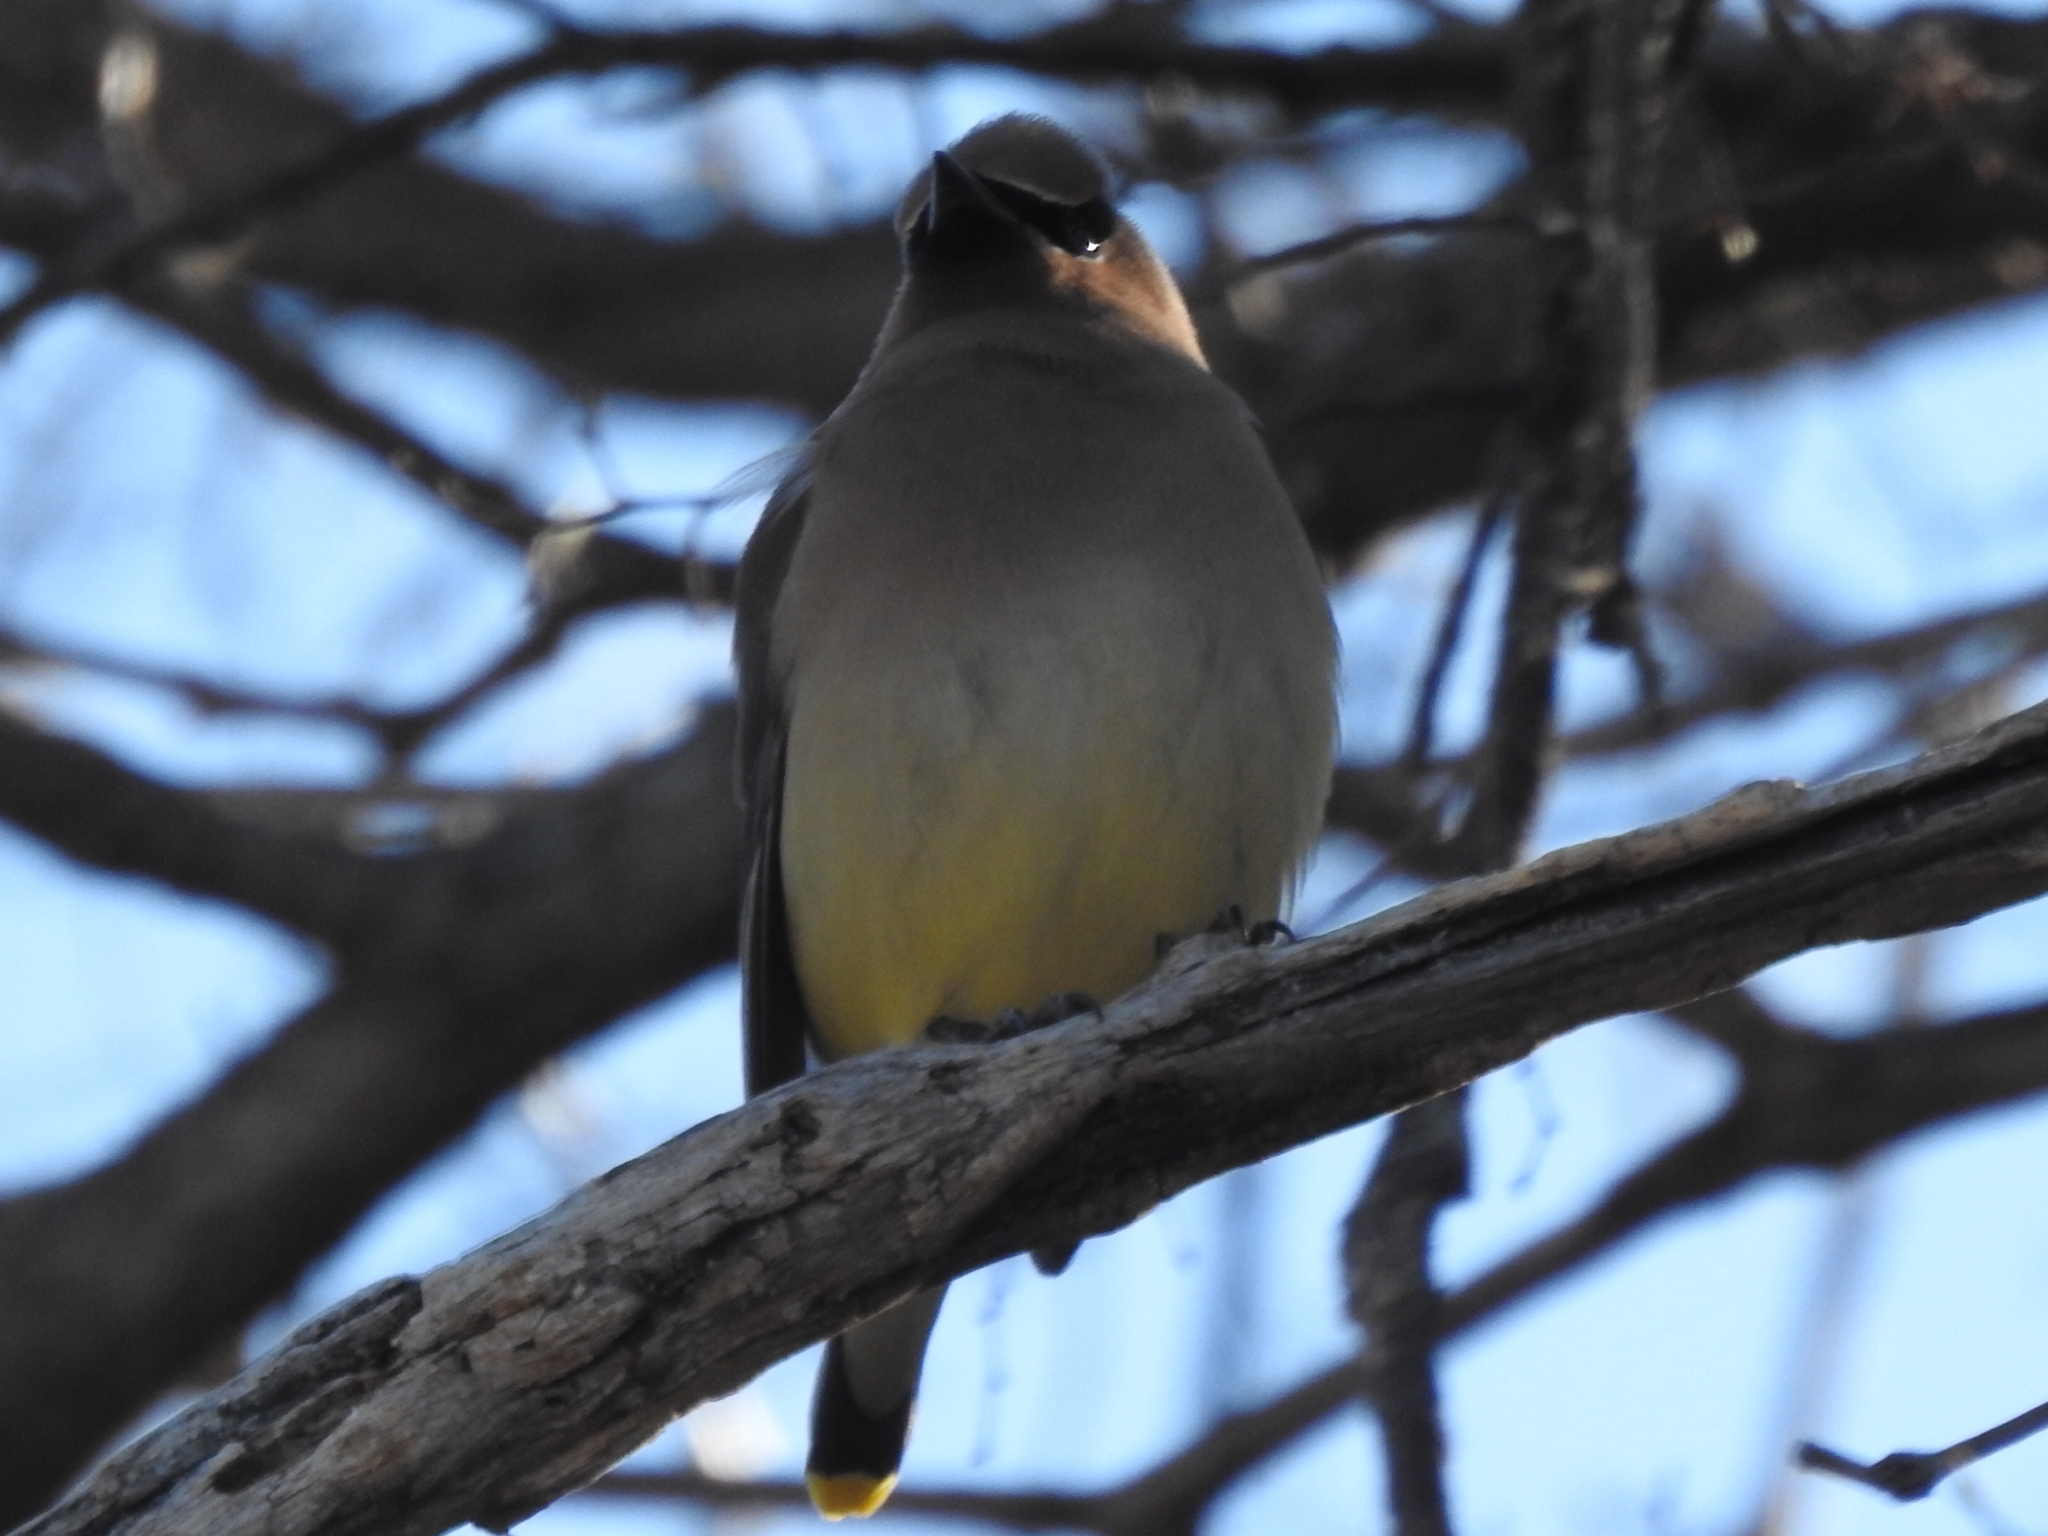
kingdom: Animalia
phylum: Chordata
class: Aves
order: Passeriformes
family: Bombycillidae
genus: Bombycilla
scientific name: Bombycilla cedrorum
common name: Cedar waxwing
